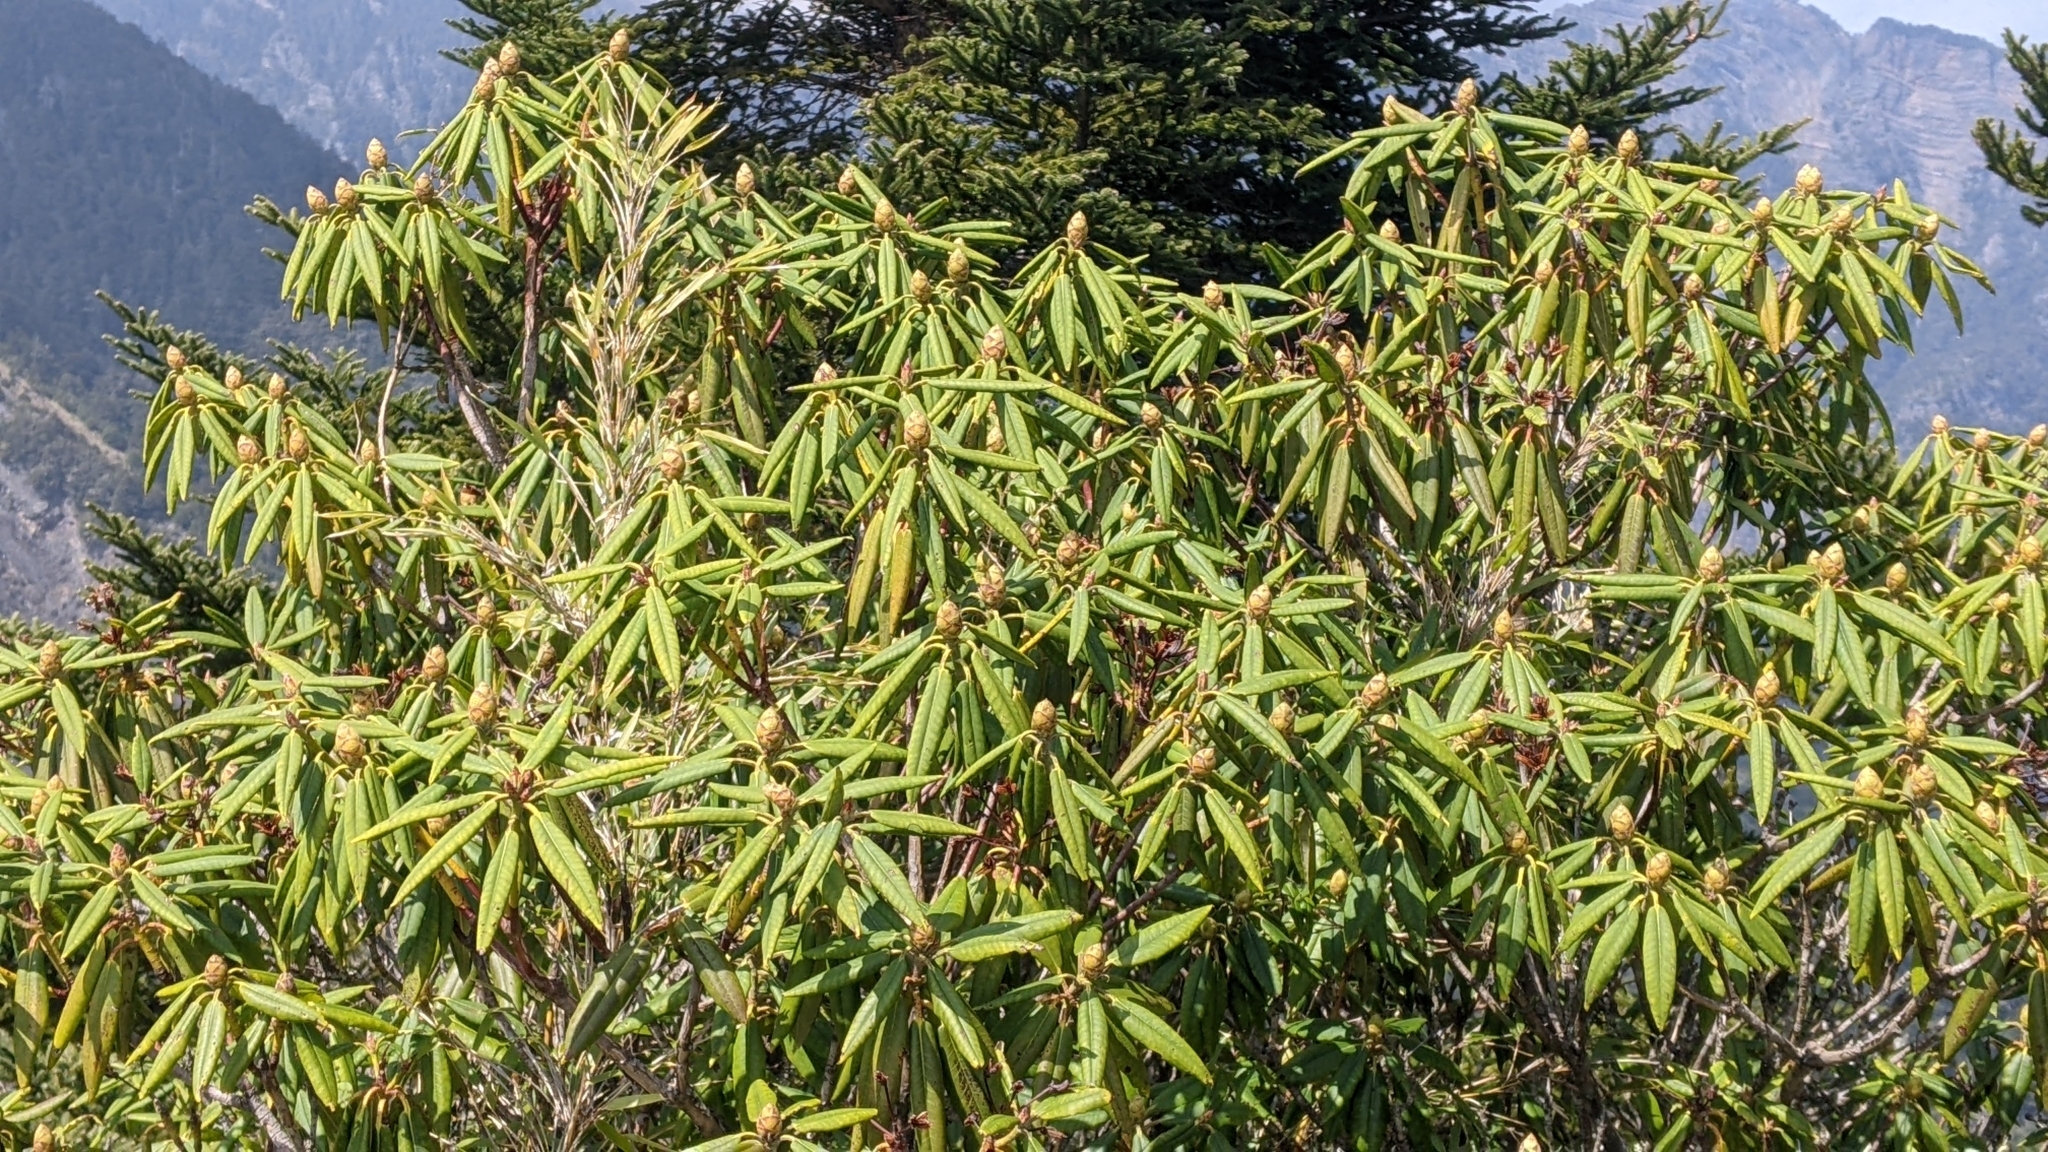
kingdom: Plantae
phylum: Tracheophyta
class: Magnoliopsida
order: Ericales
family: Ericaceae
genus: Rhododendron
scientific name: Rhododendron pseudochrysanthum
